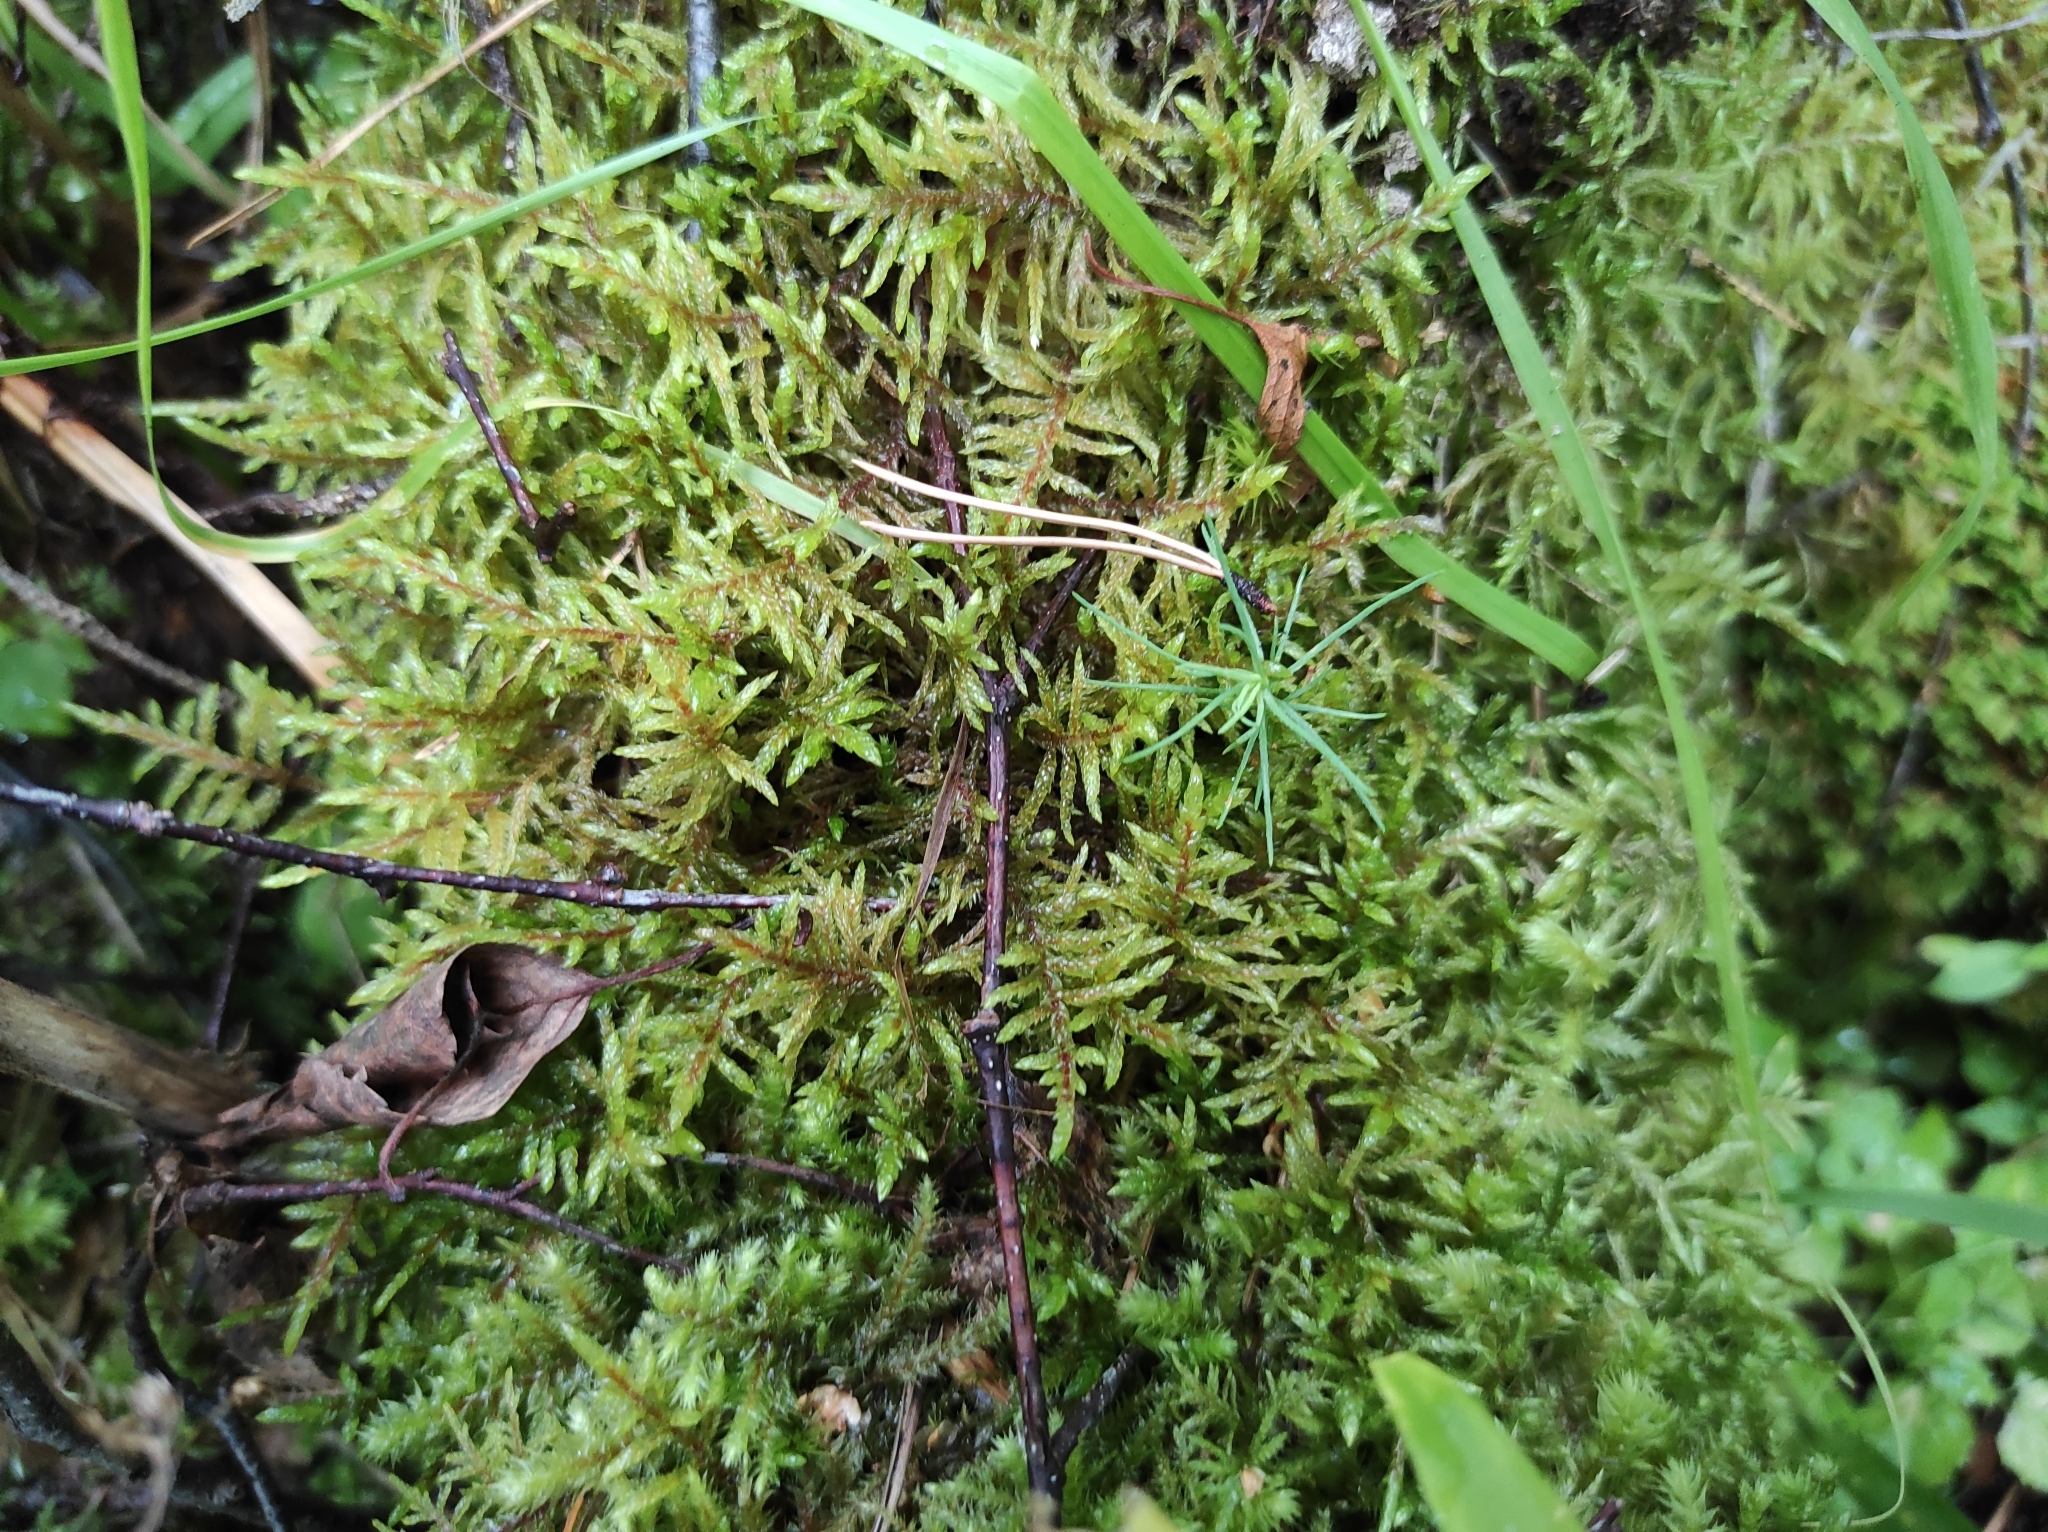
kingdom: Plantae
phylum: Tracheophyta
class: Pinopsida
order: Pinales
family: Pinaceae
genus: Pinus
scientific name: Pinus sylvestris
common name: Scots pine
